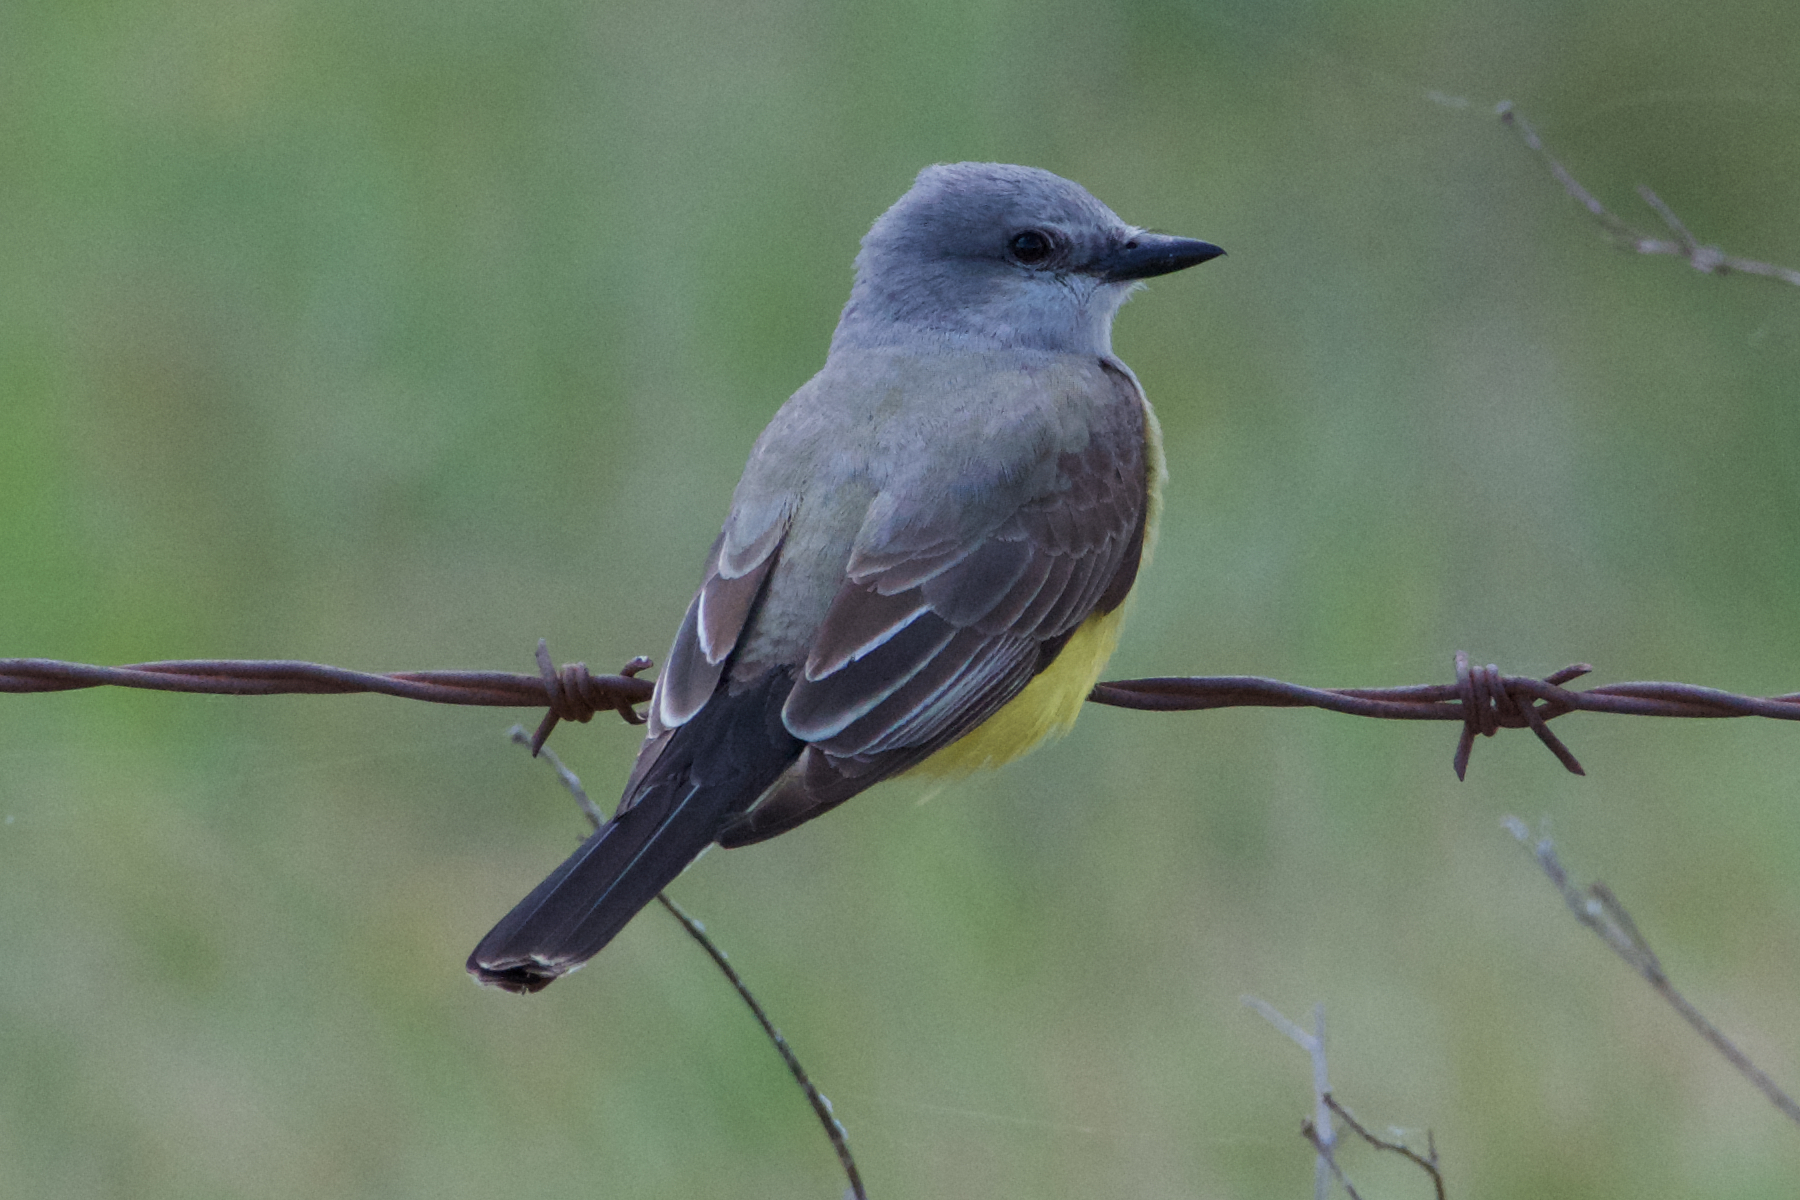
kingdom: Animalia
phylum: Chordata
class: Aves
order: Passeriformes
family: Tyrannidae
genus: Tyrannus
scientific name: Tyrannus verticalis
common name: Western kingbird
